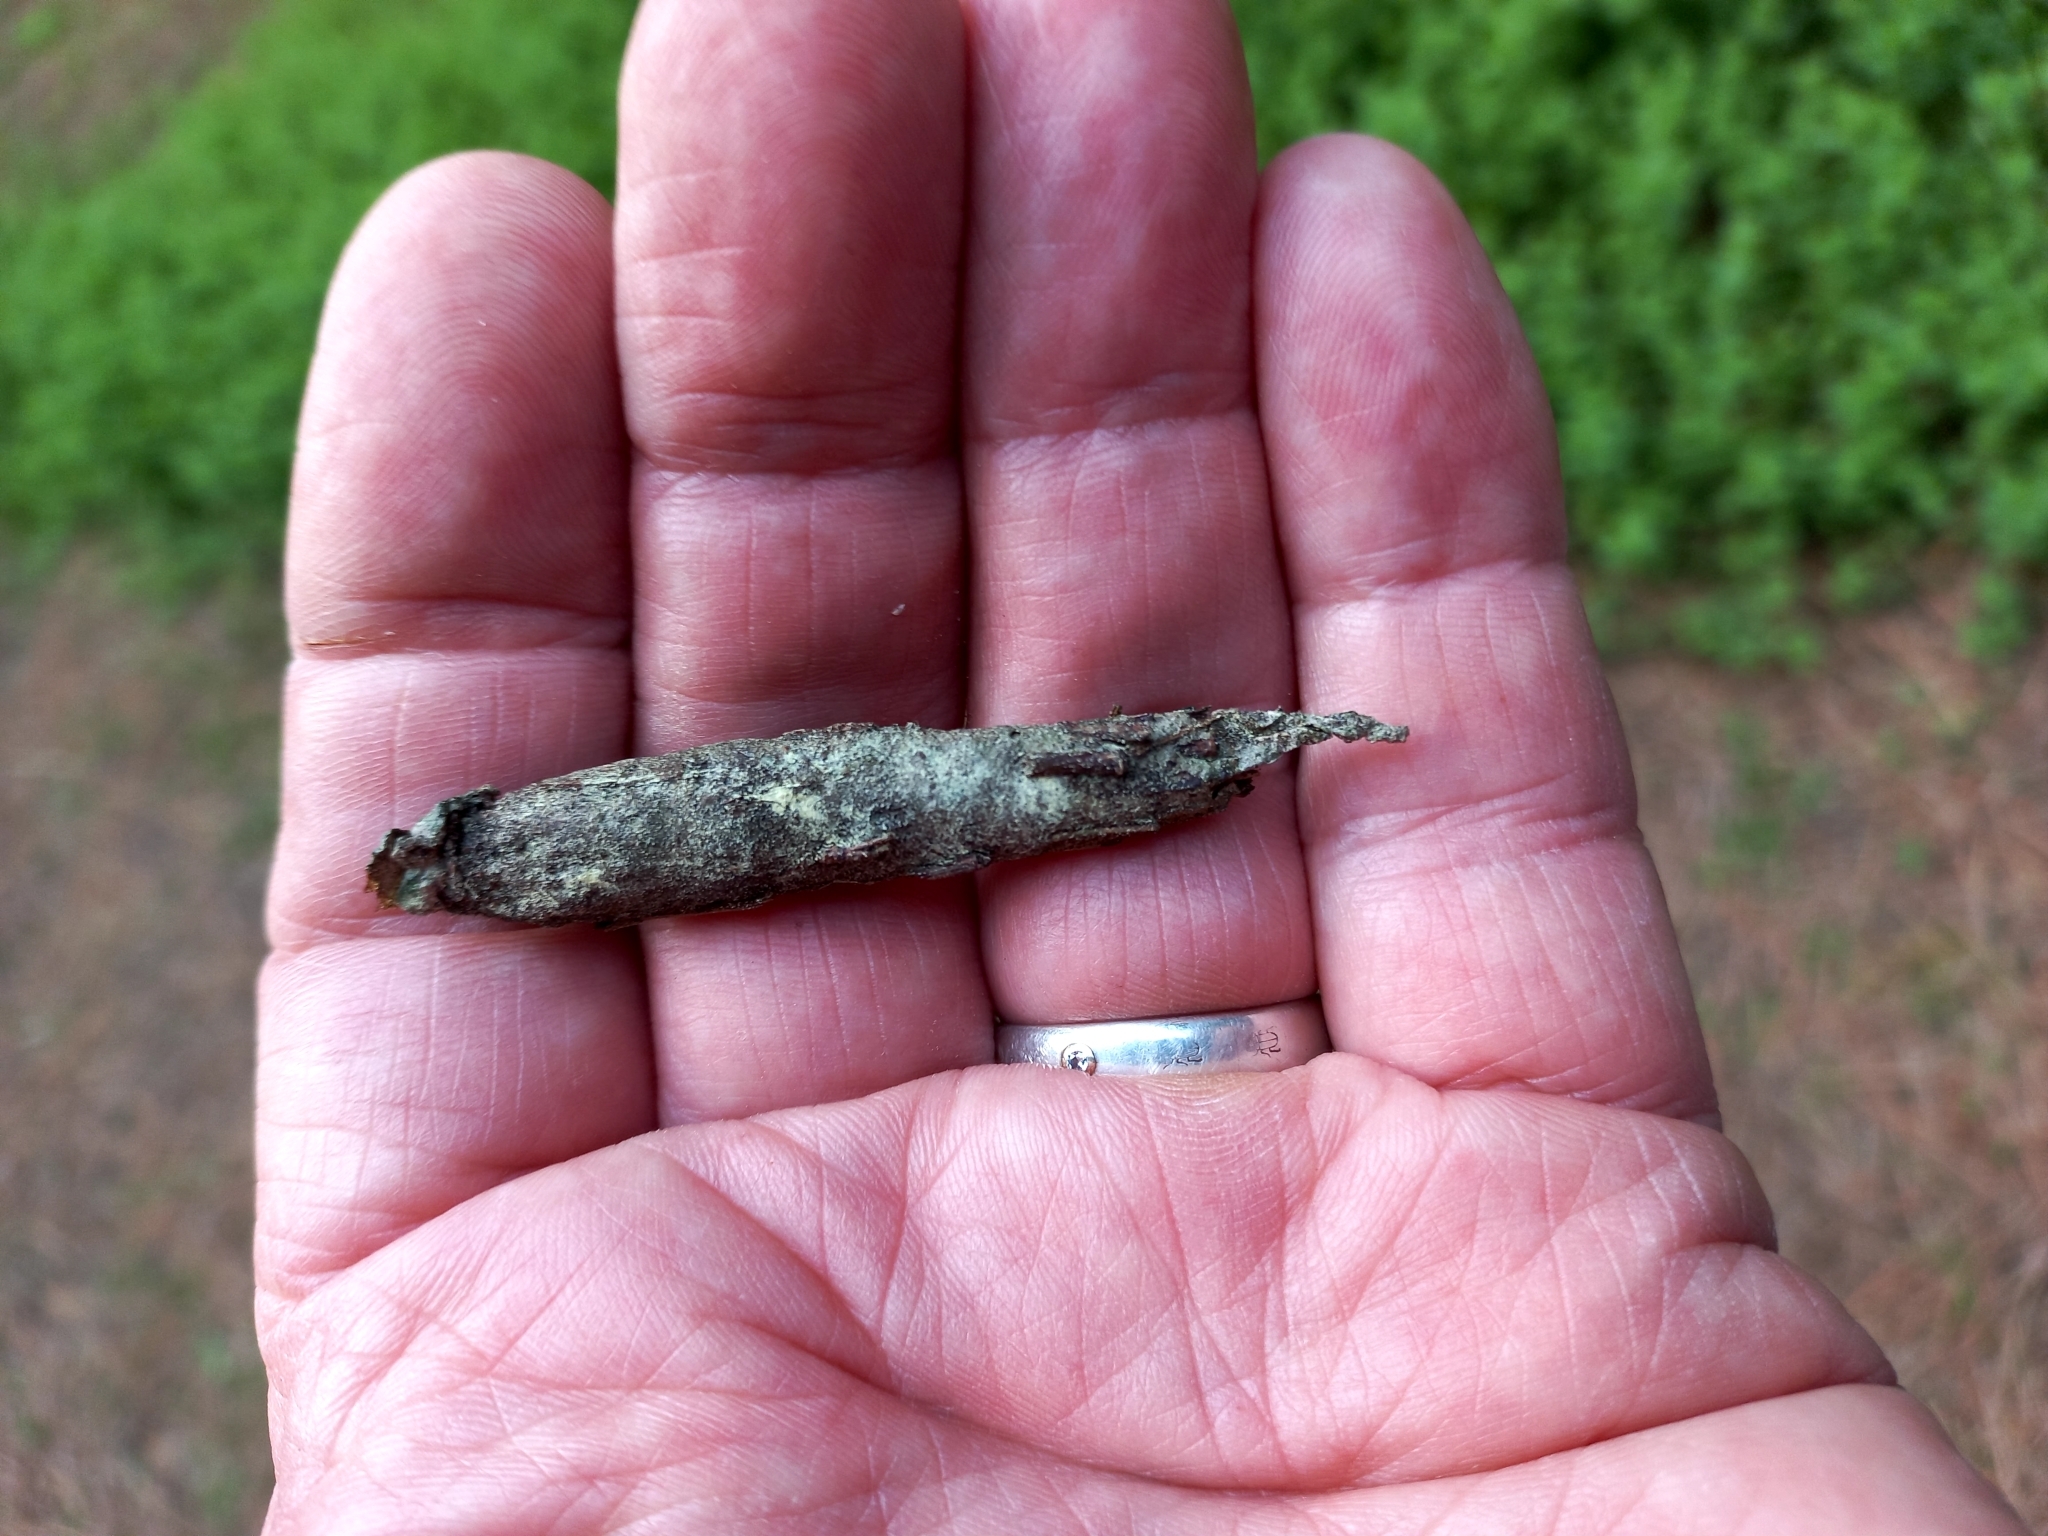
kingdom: Animalia
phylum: Arthropoda
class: Insecta
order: Lepidoptera
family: Psychidae
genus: Liothula
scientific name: Liothula omnivora
